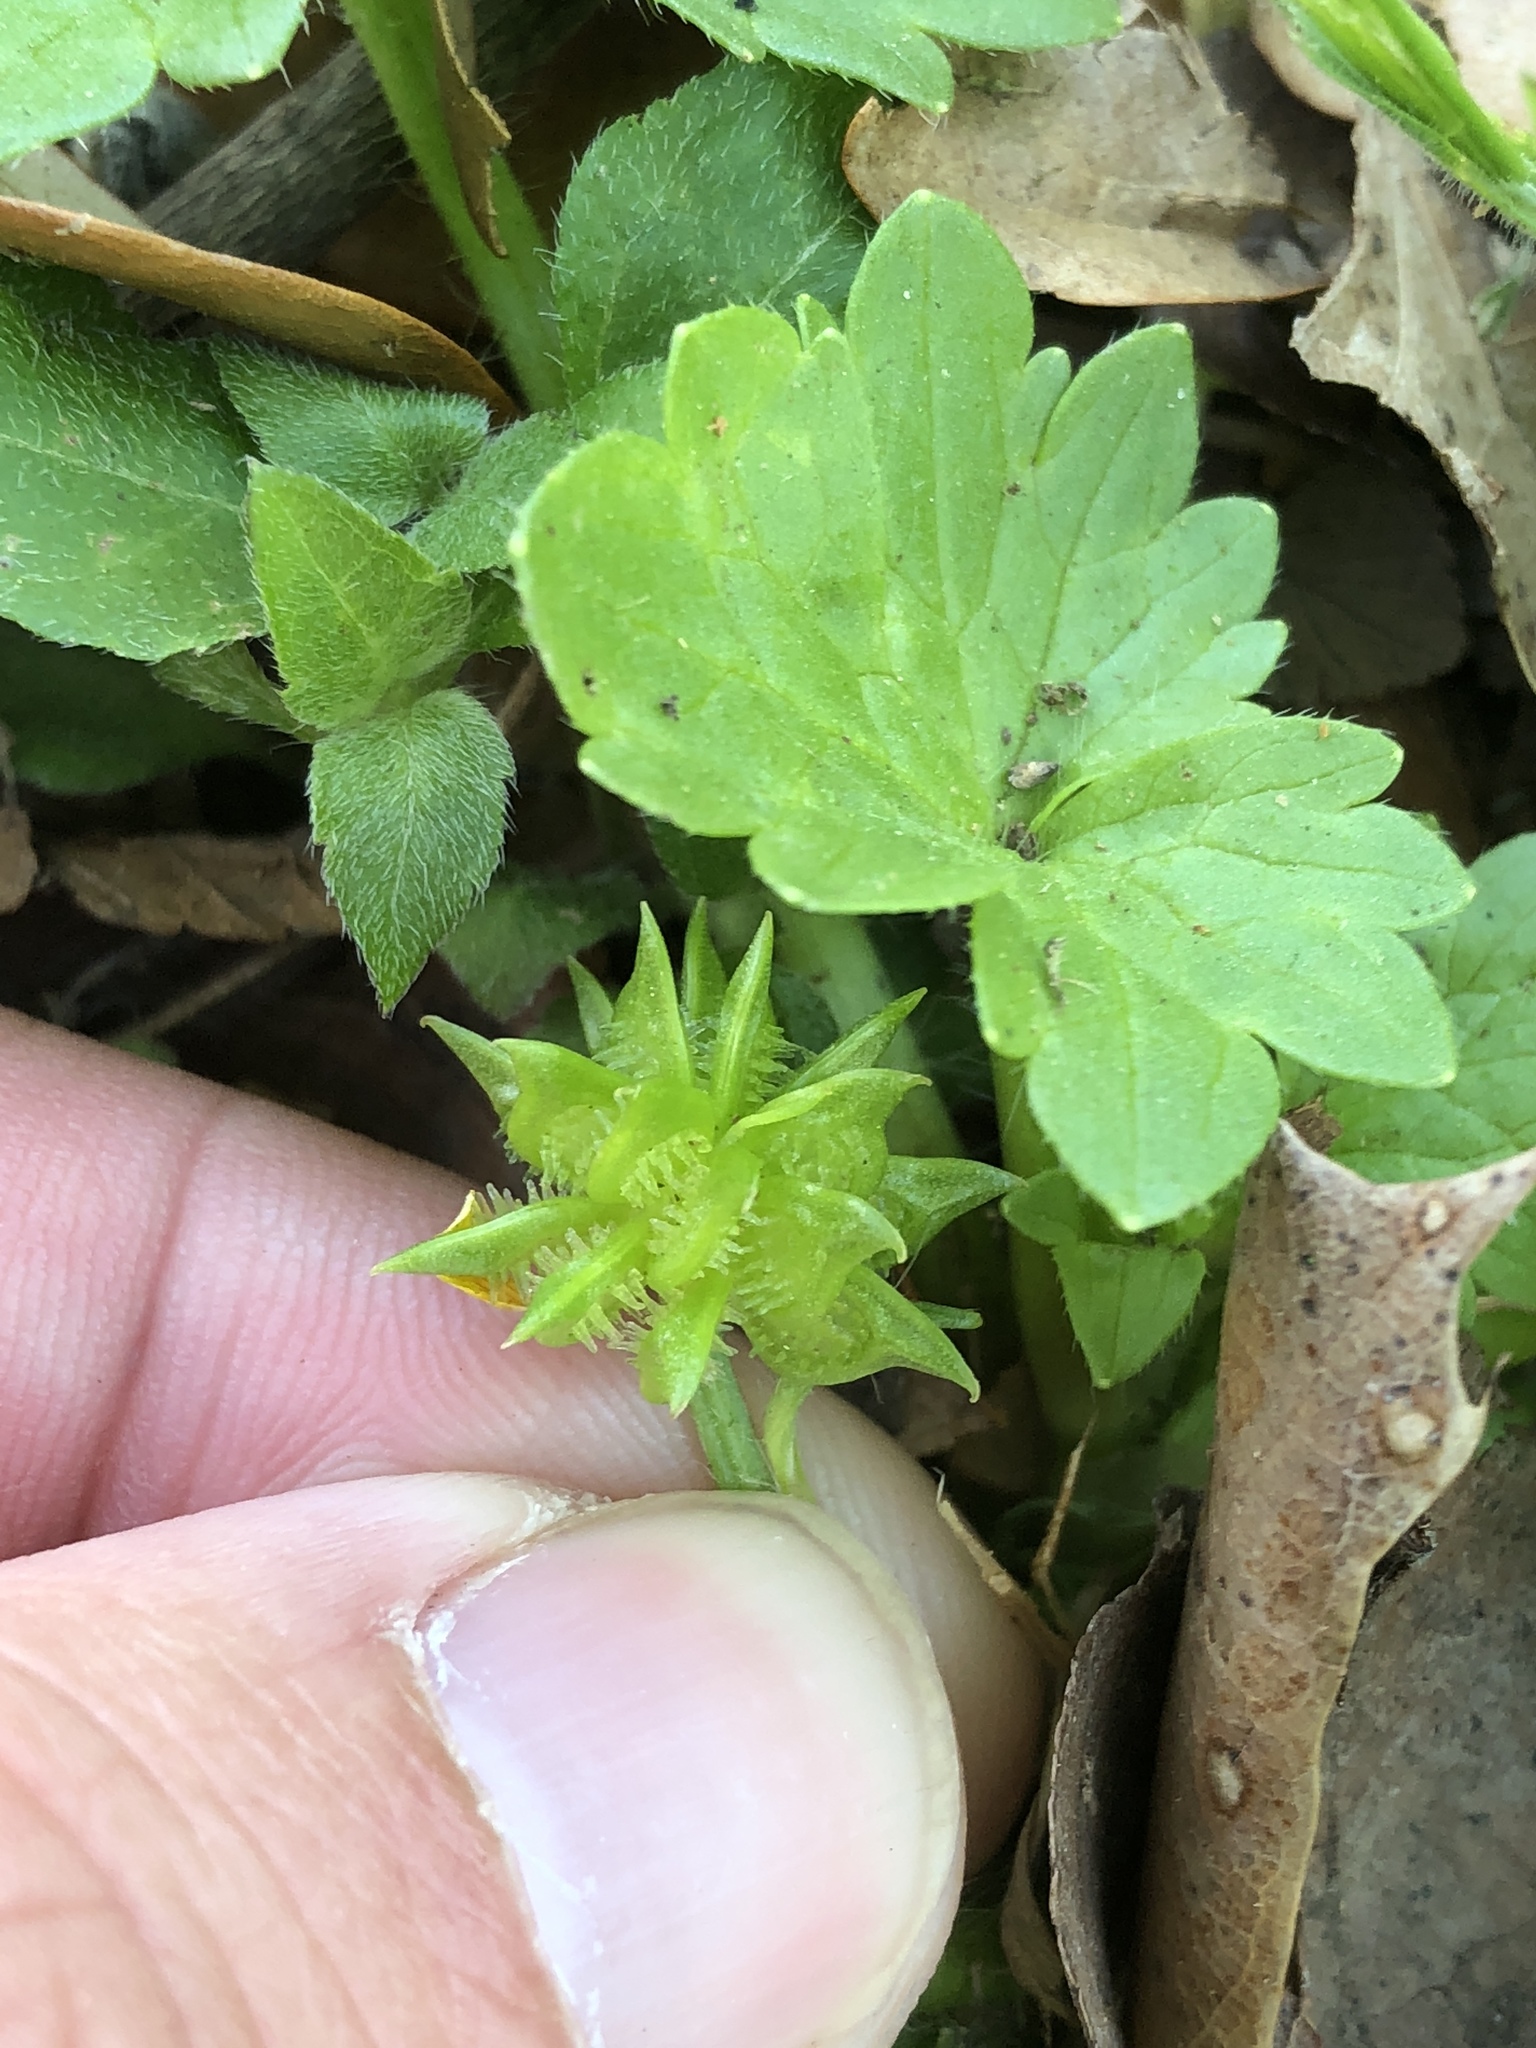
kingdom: Plantae
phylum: Tracheophyta
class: Magnoliopsida
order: Ranunculales
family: Ranunculaceae
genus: Ranunculus
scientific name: Ranunculus muricatus
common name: Rough-fruited buttercup
